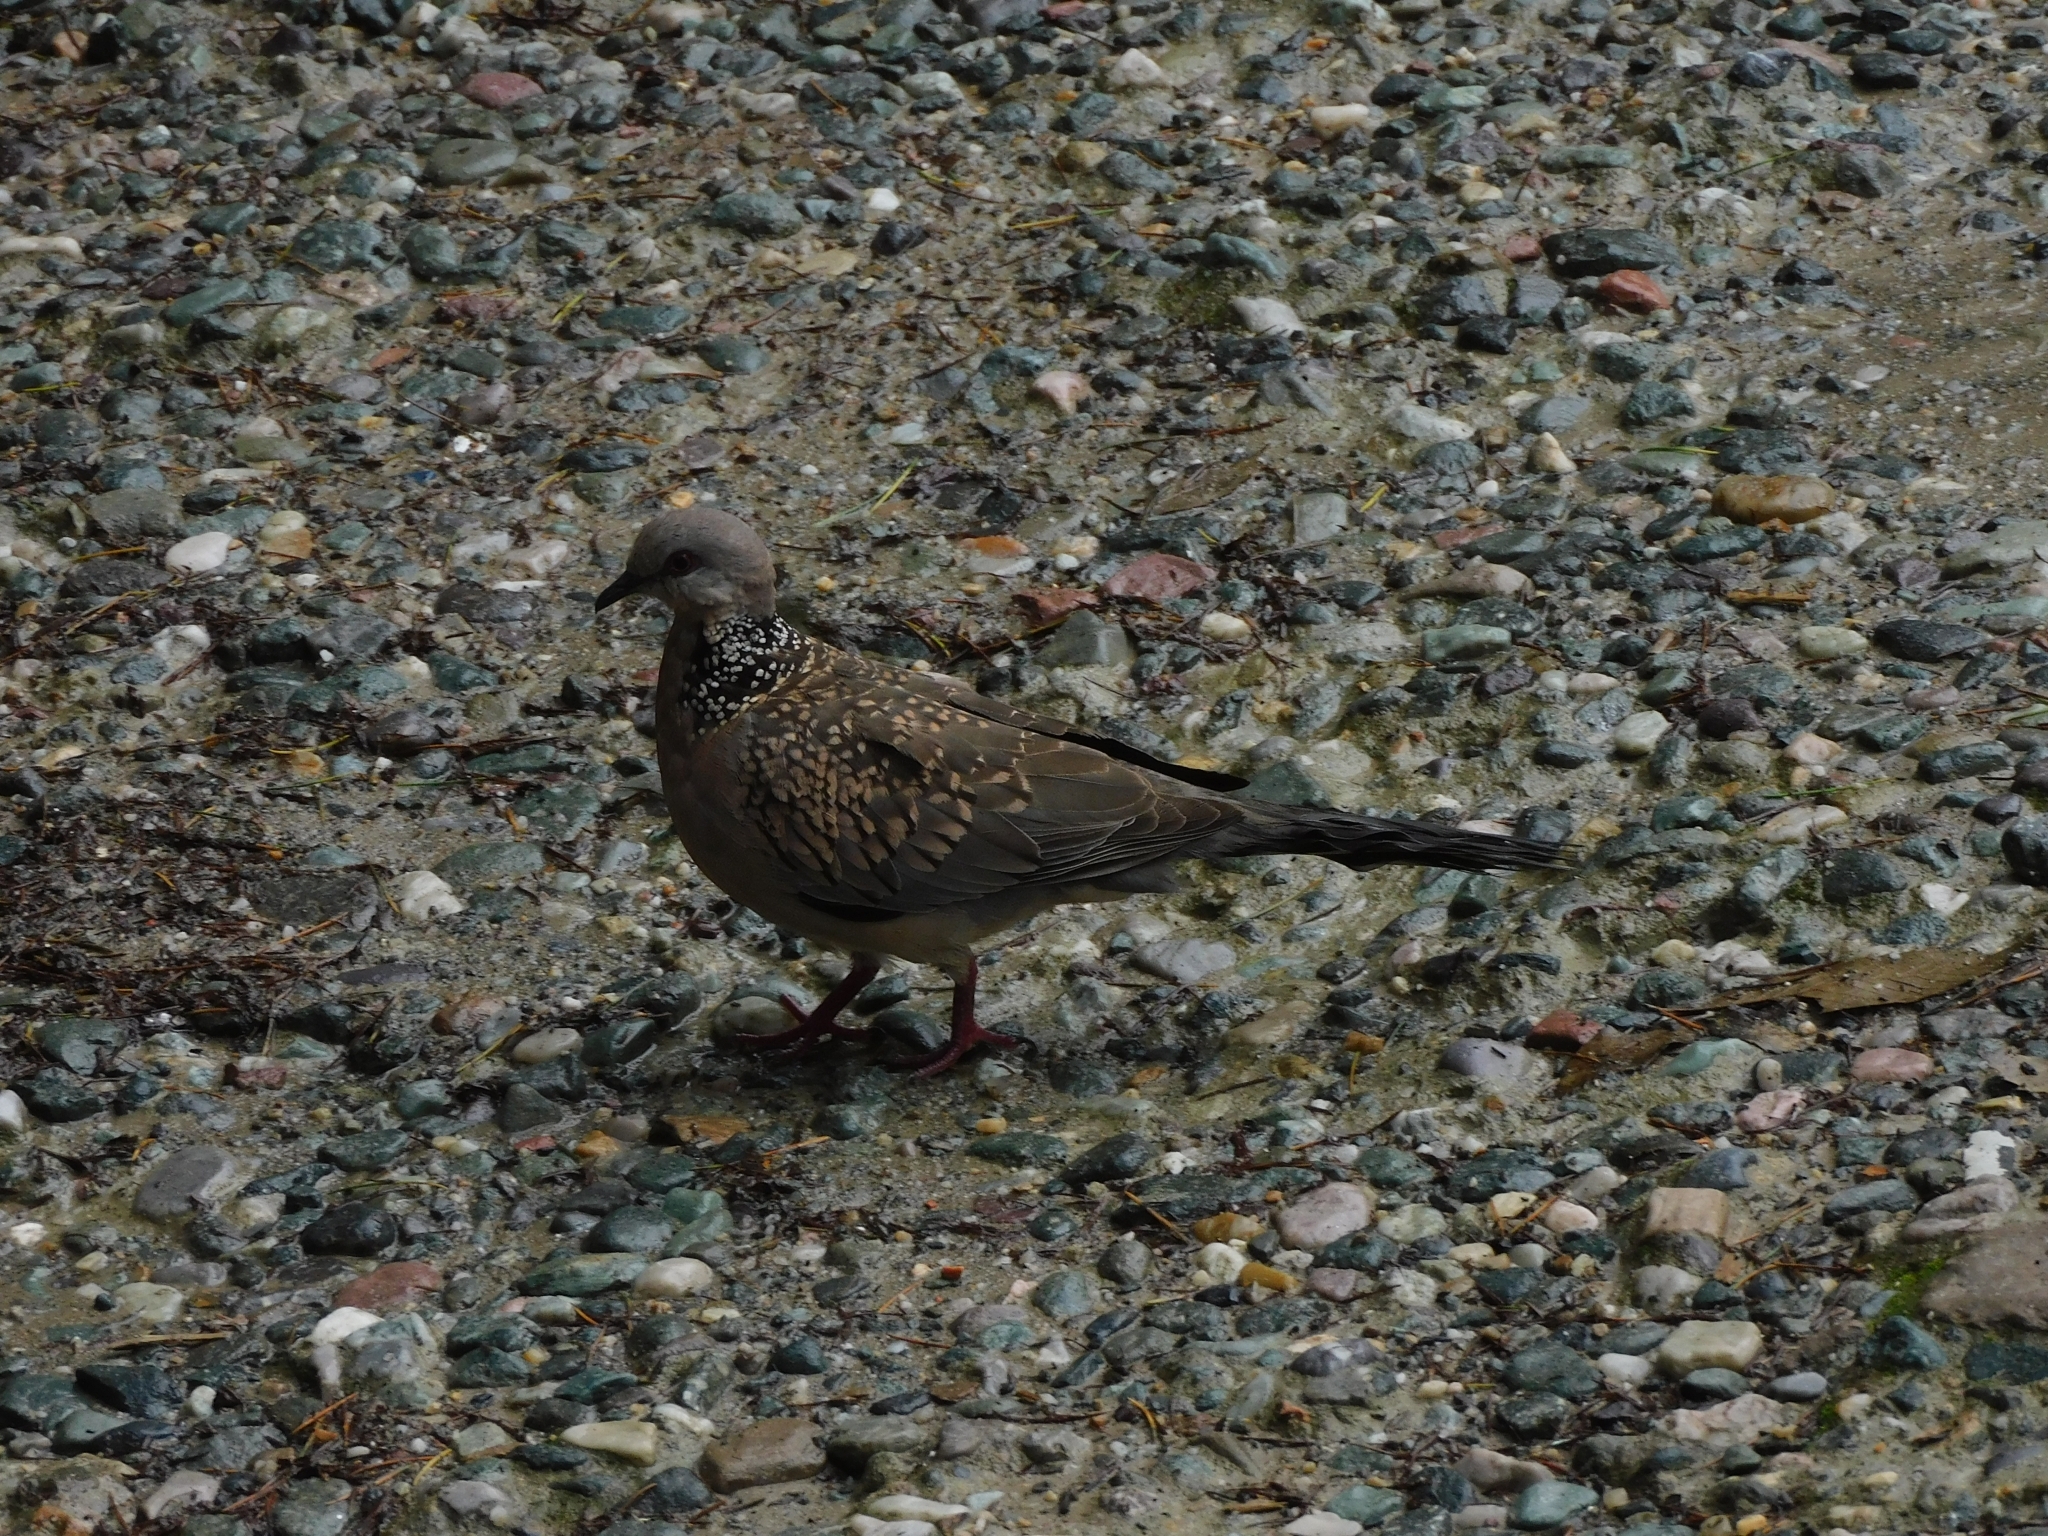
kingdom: Animalia
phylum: Chordata
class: Aves
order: Columbiformes
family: Columbidae
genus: Spilopelia
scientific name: Spilopelia chinensis
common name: Spotted dove
